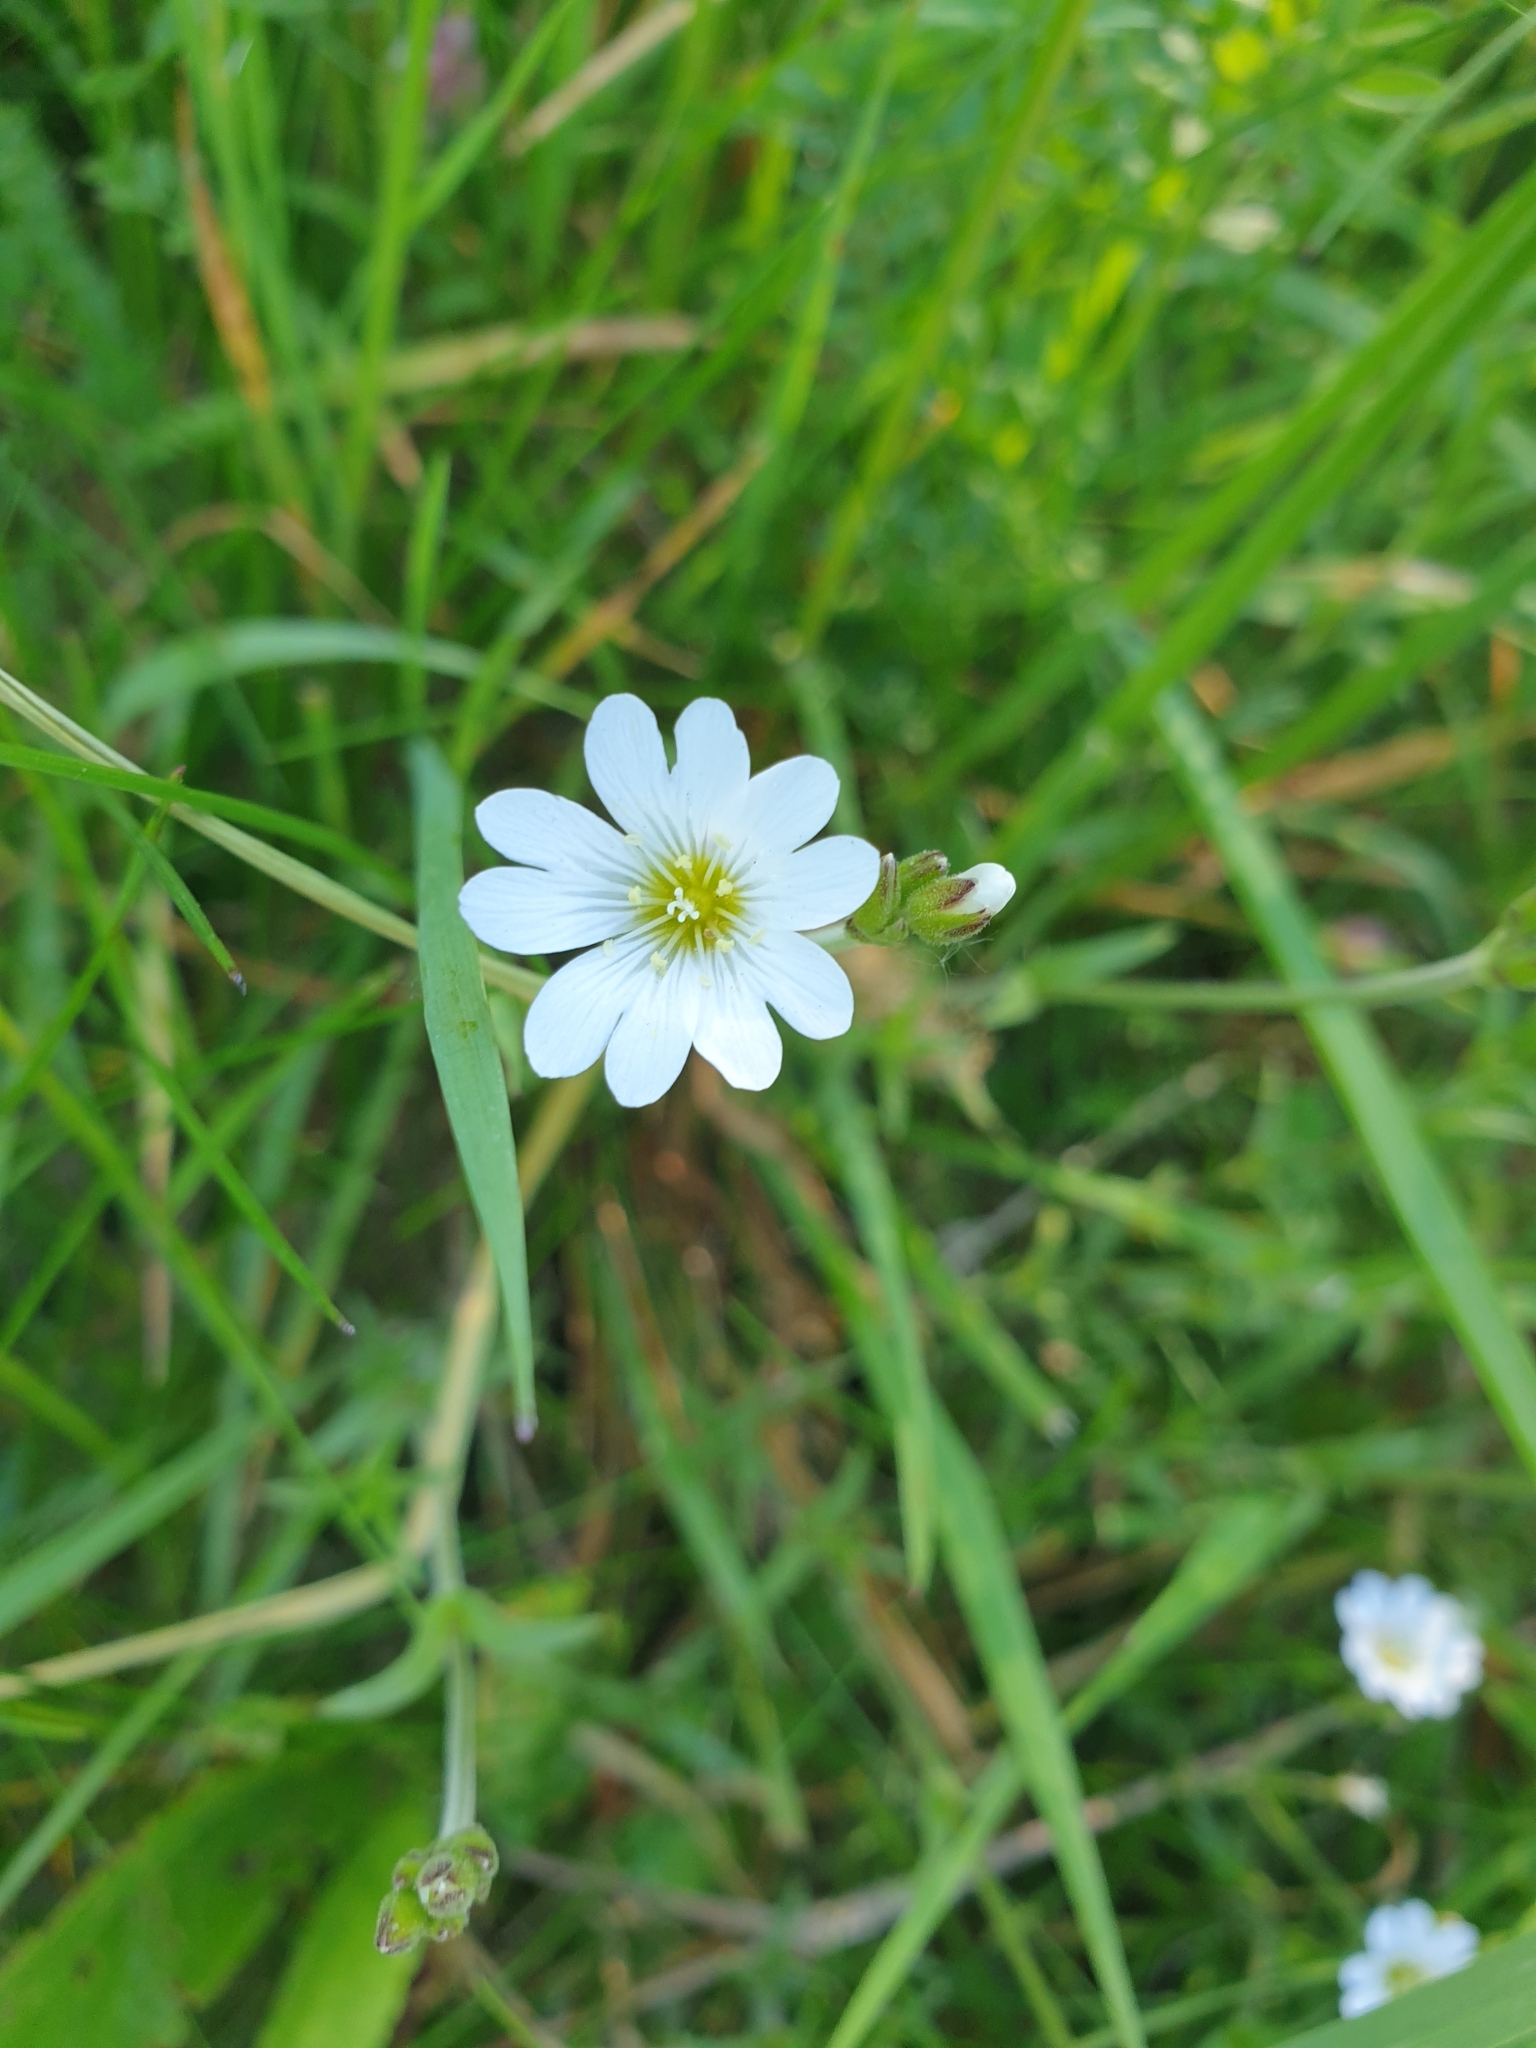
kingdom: Plantae
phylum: Tracheophyta
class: Magnoliopsida
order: Caryophyllales
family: Caryophyllaceae
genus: Cerastium
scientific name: Cerastium arvense
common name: Field mouse-ear
